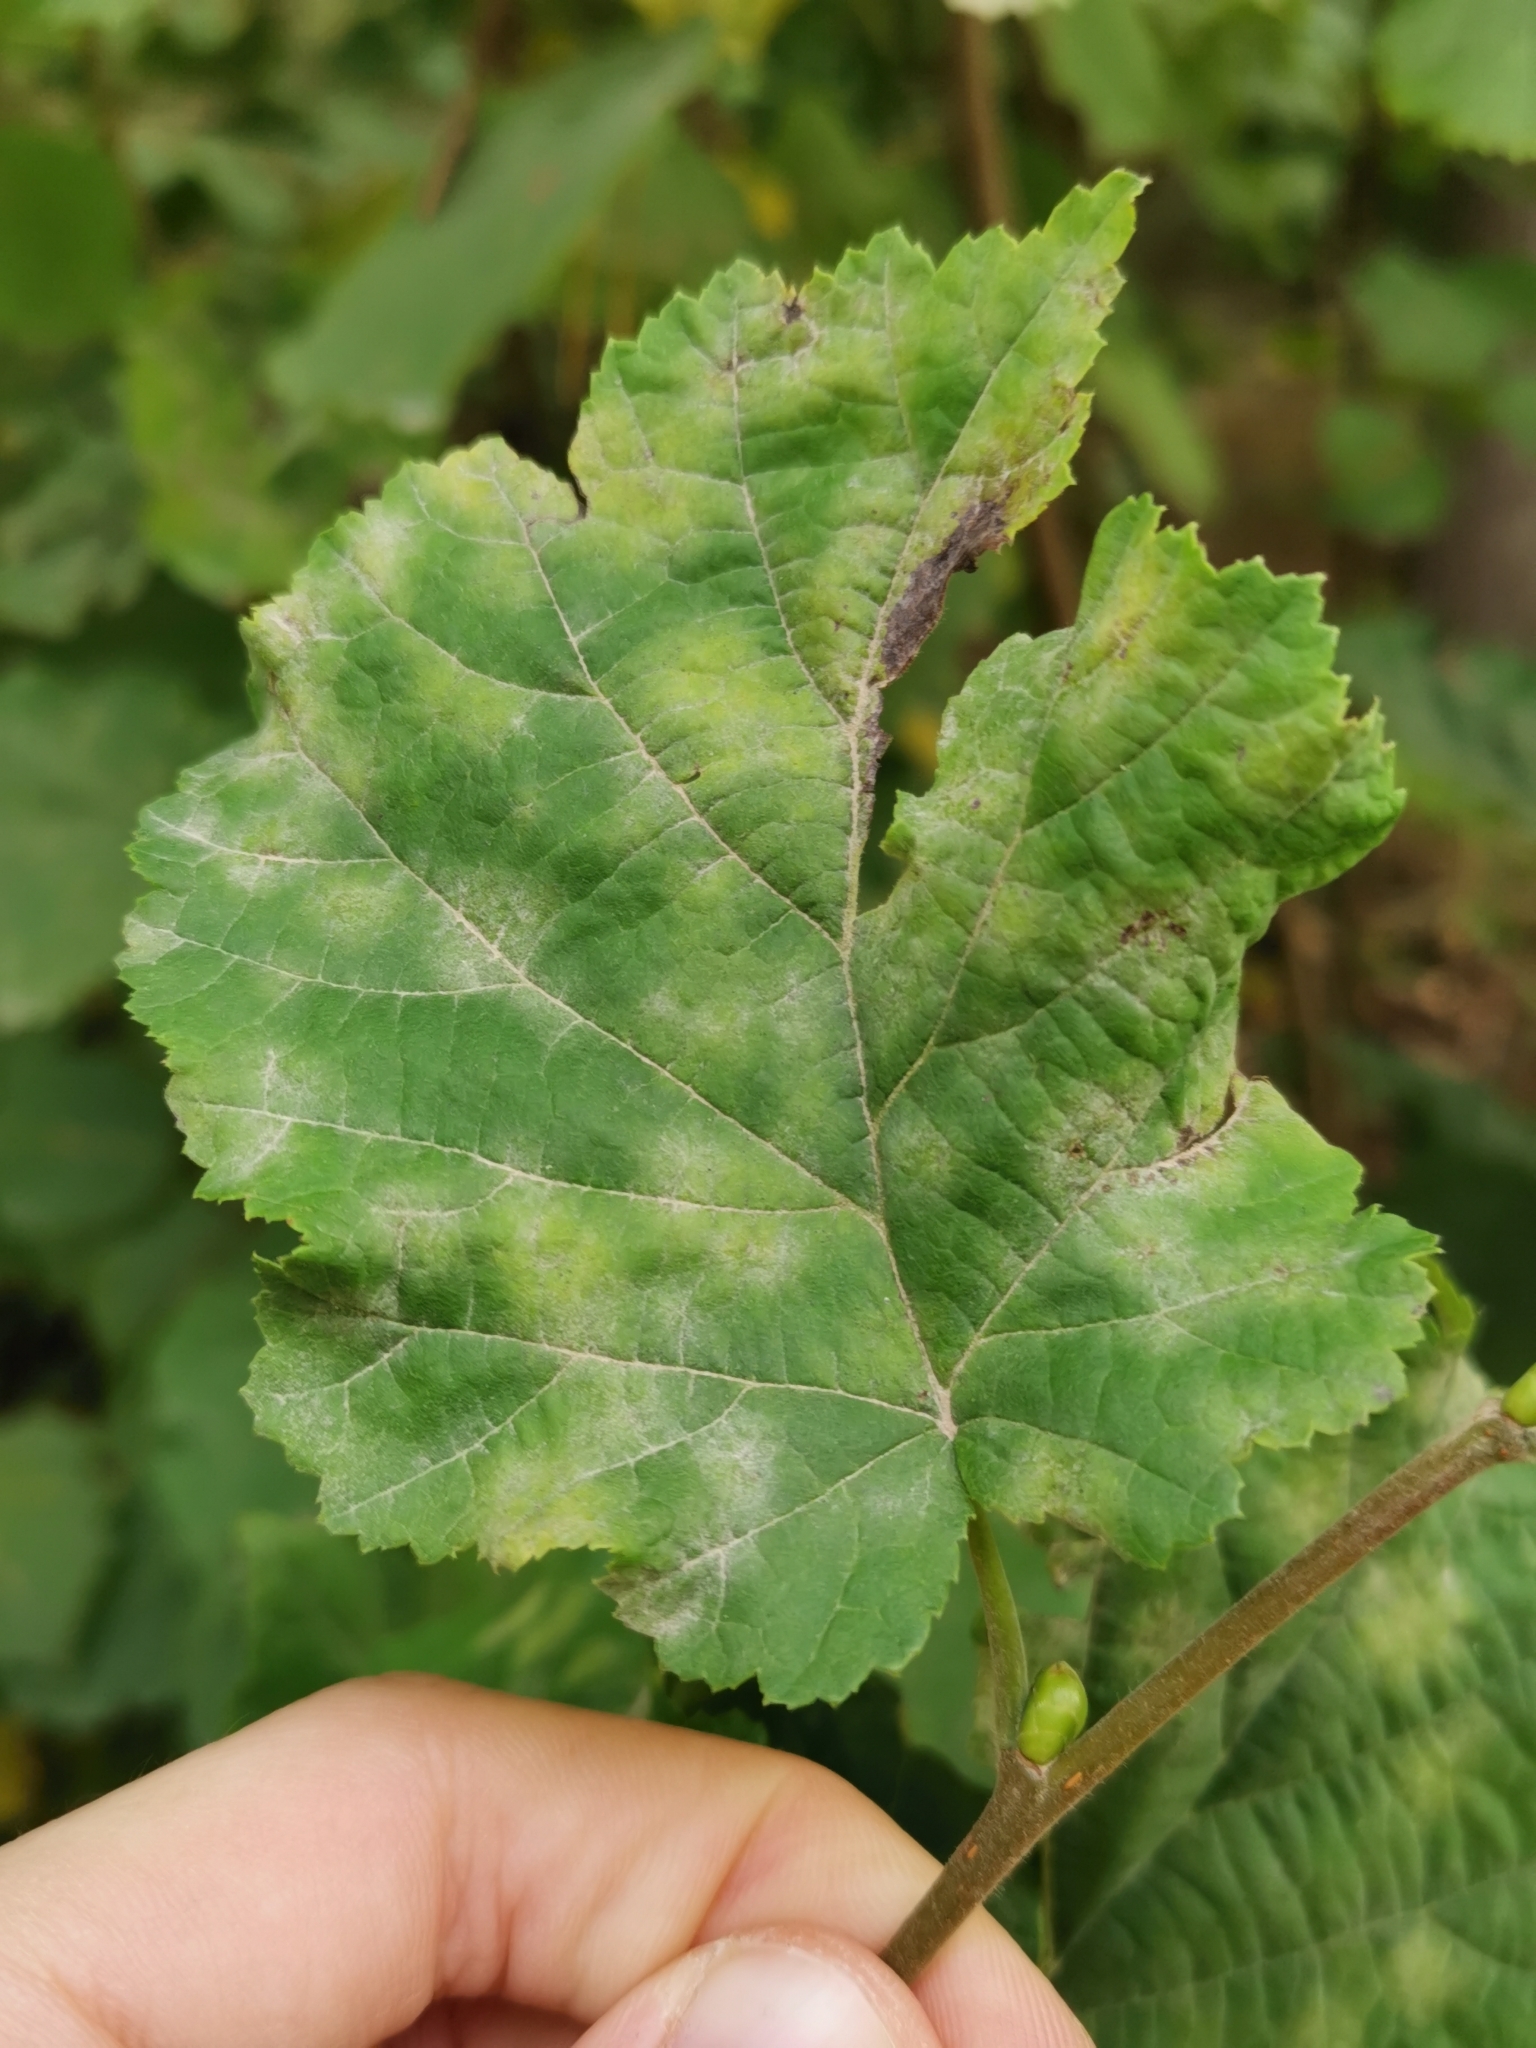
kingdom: Fungi
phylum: Ascomycota
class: Leotiomycetes
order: Helotiales
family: Erysiphaceae
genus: Erysiphe
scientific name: Erysiphe corylacearum
